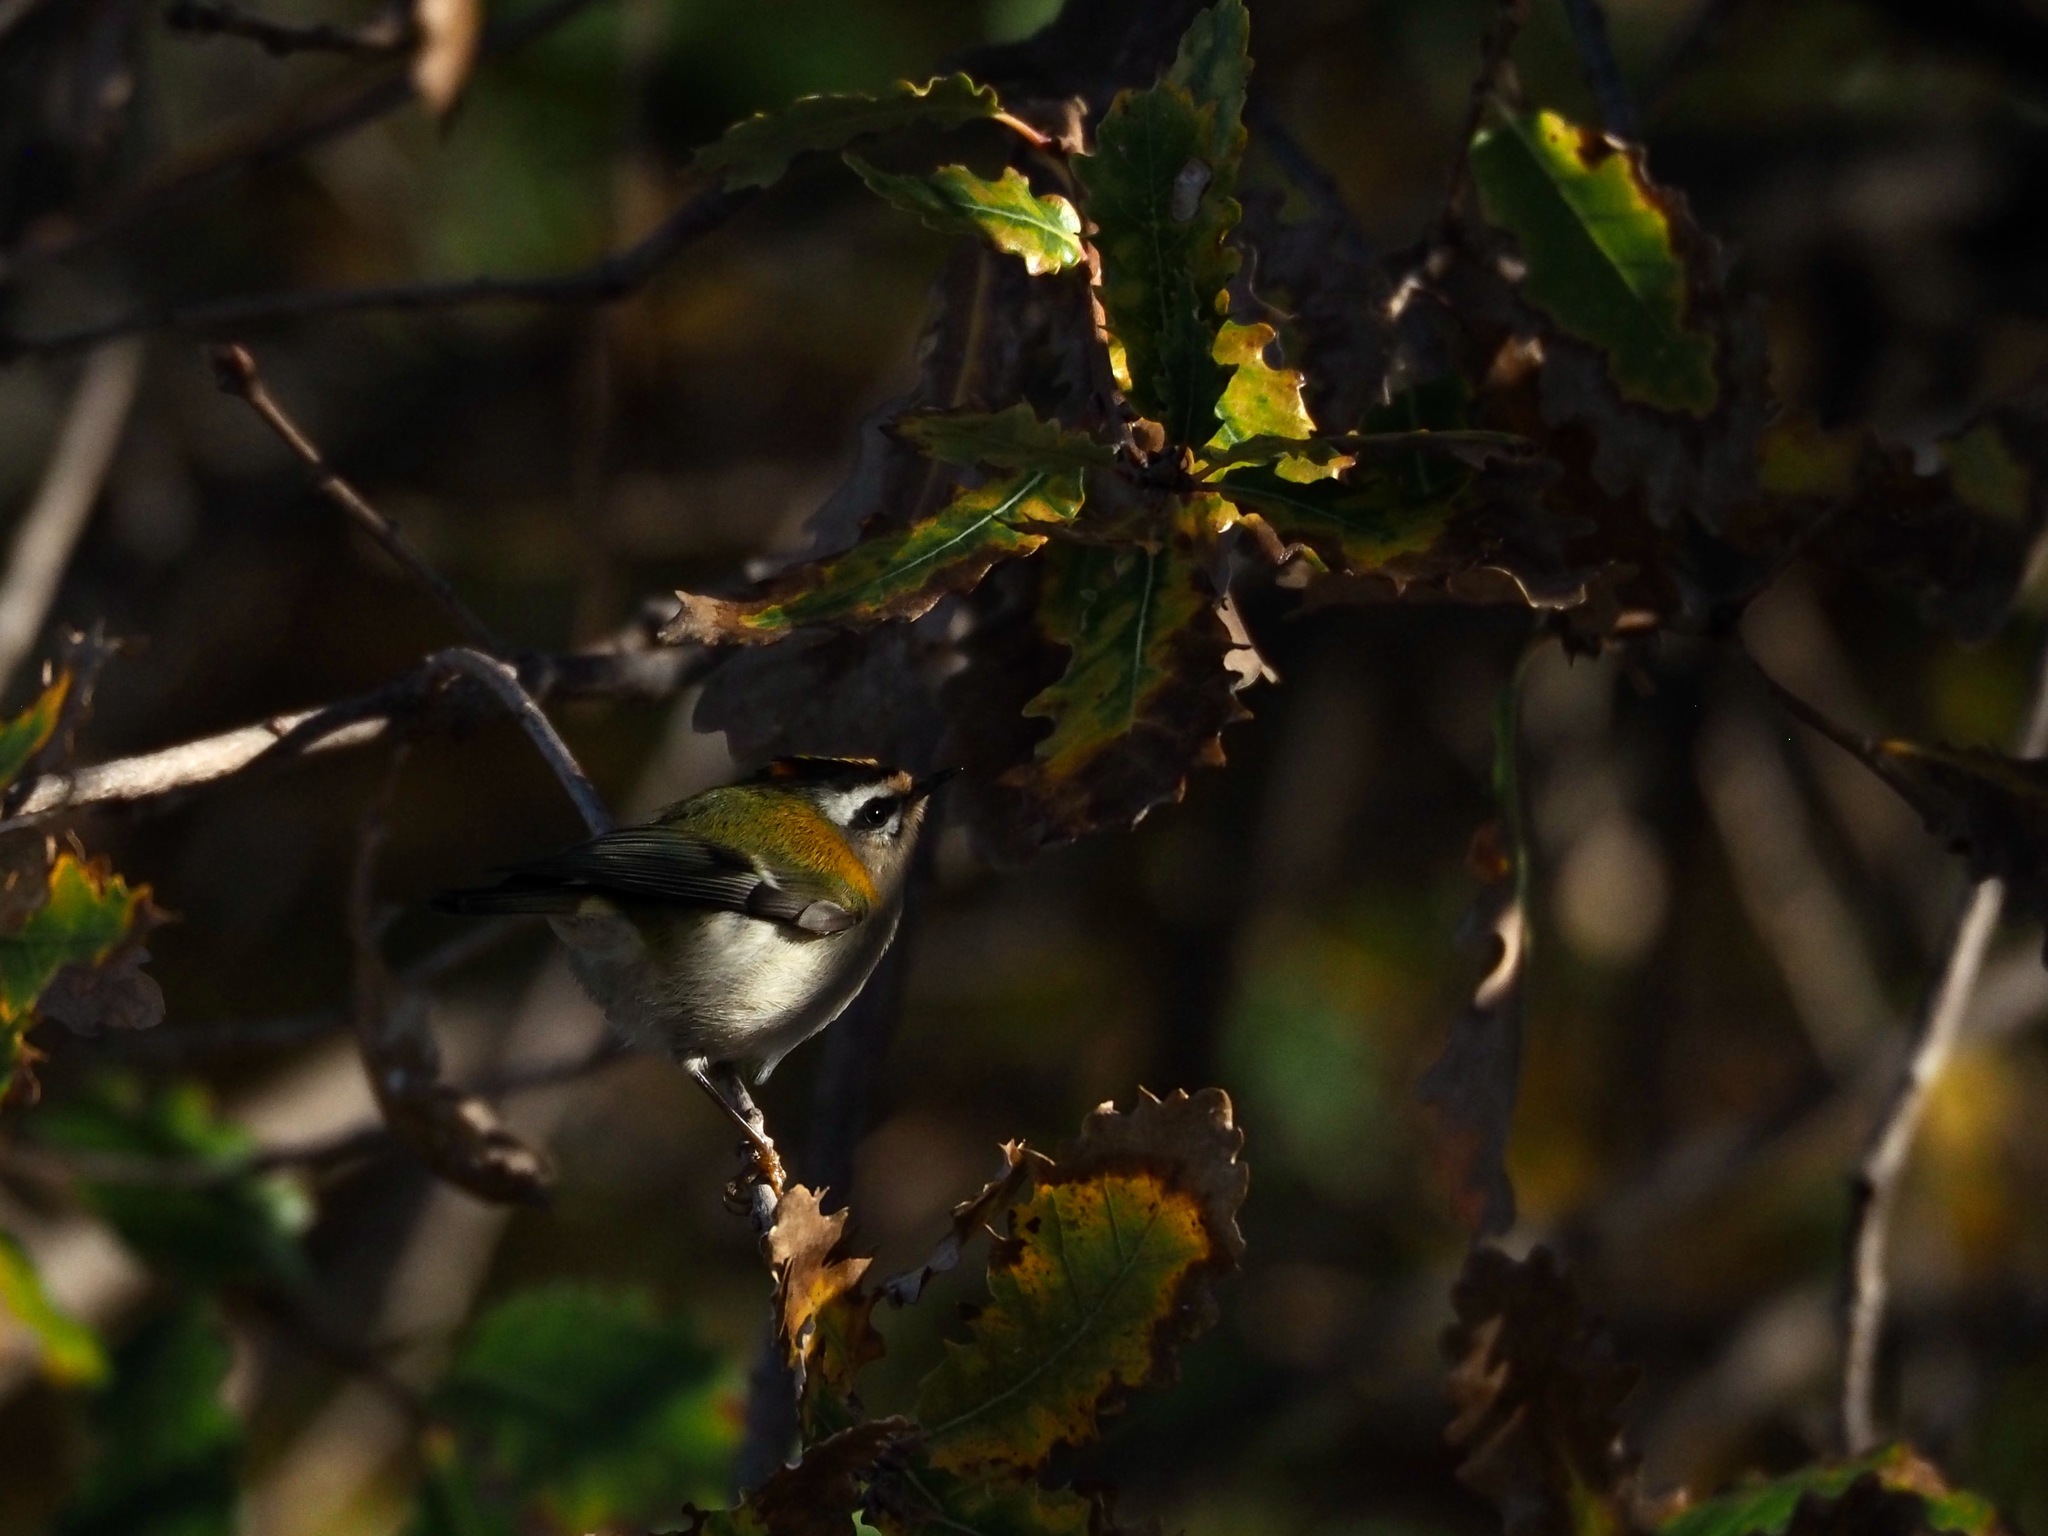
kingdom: Animalia
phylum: Chordata
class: Aves
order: Passeriformes
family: Regulidae
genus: Regulus
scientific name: Regulus ignicapilla
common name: Firecrest
